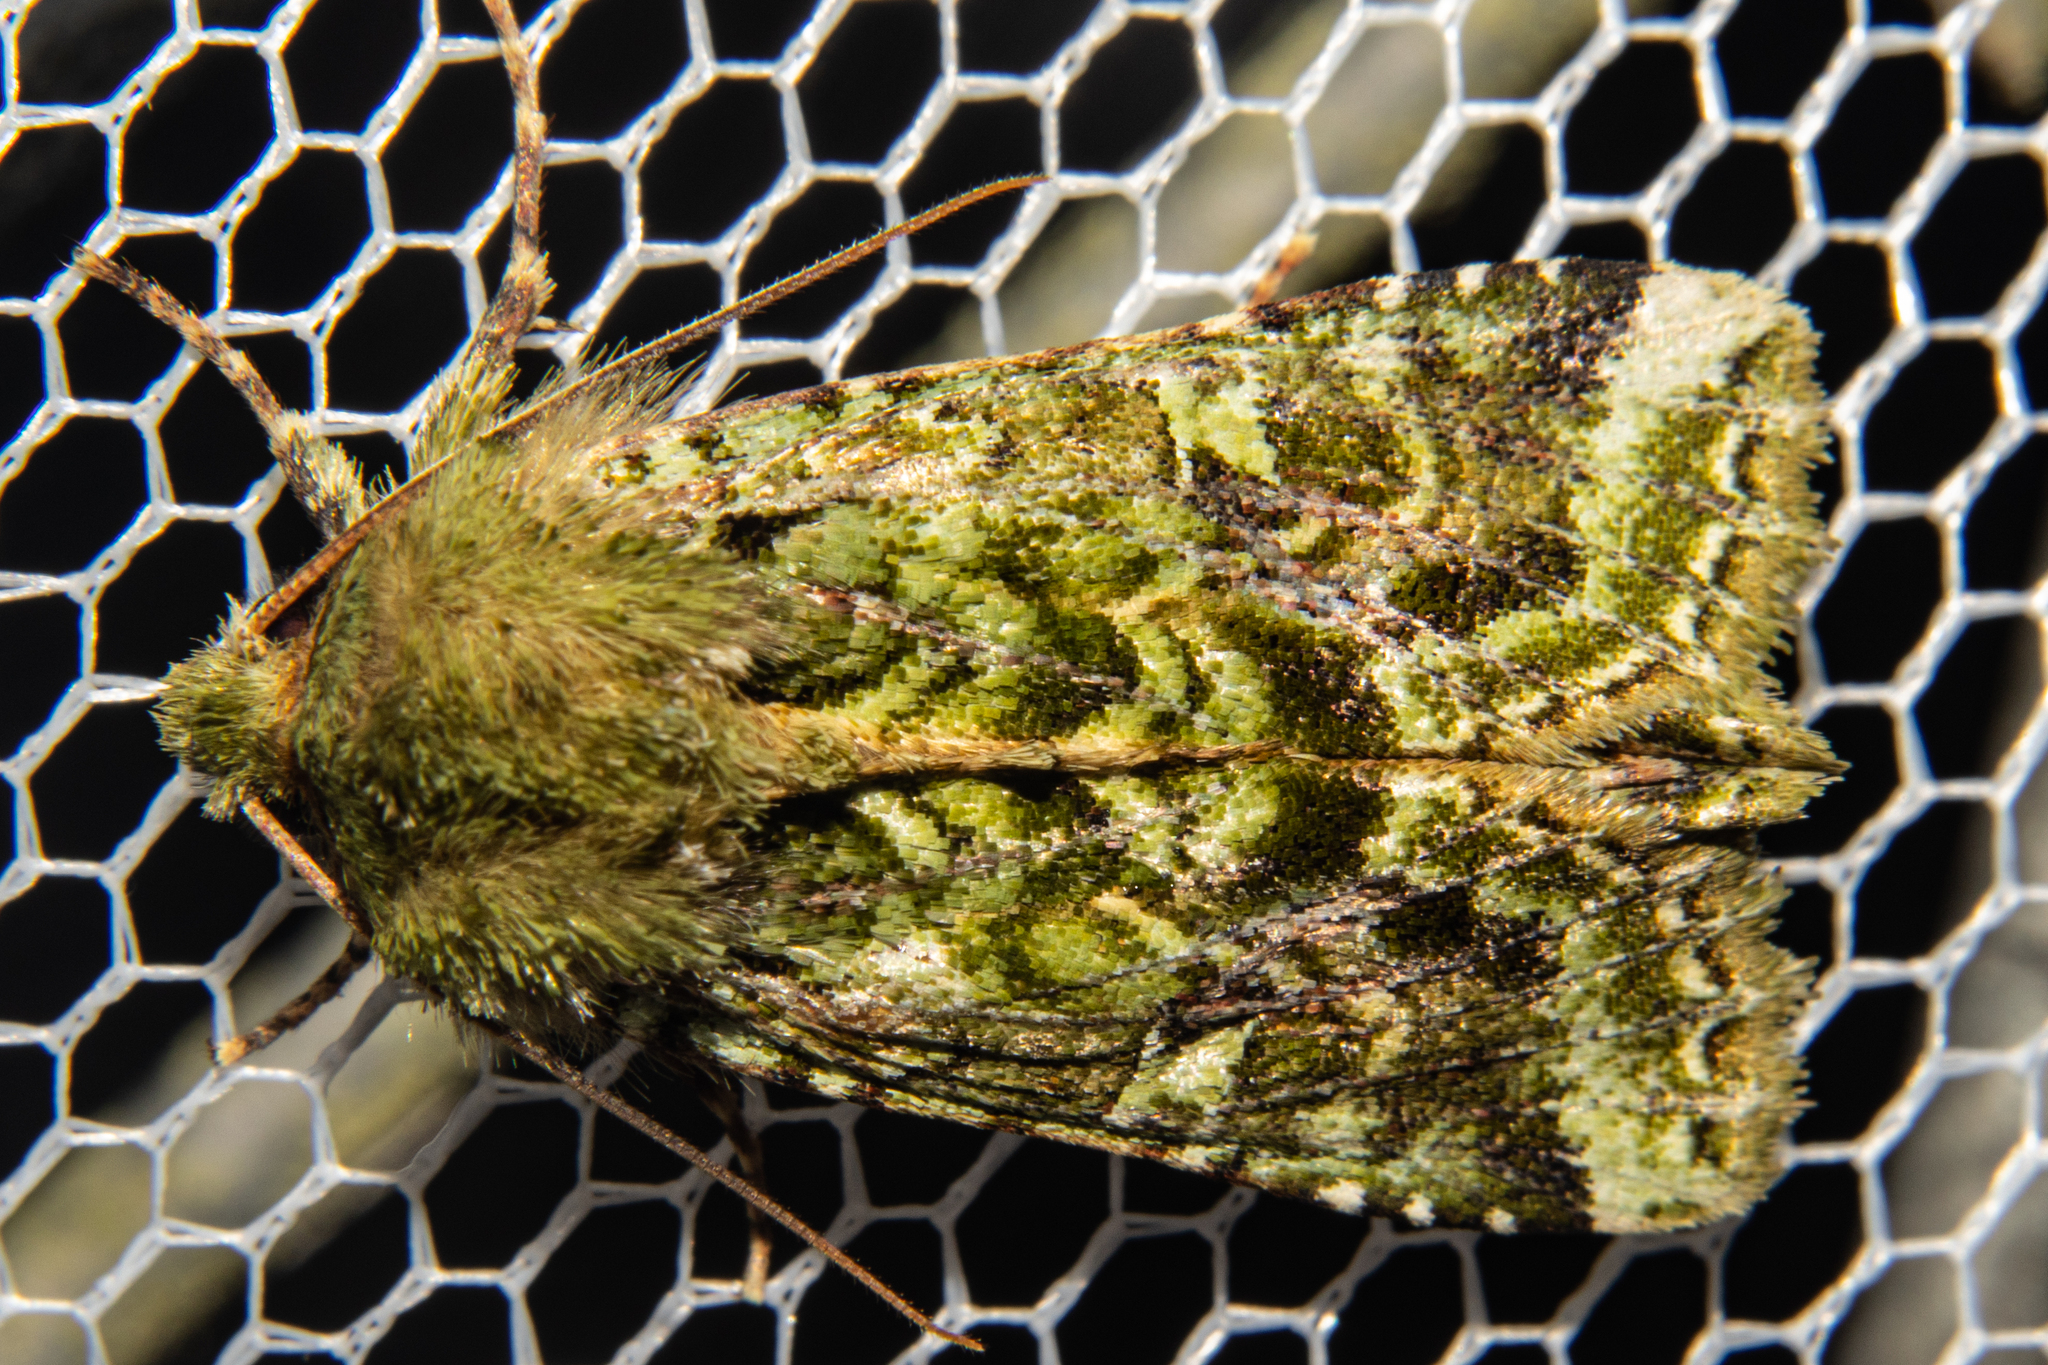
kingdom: Animalia
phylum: Arthropoda
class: Insecta
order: Lepidoptera
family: Noctuidae
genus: Feredayia
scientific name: Feredayia grammosa
